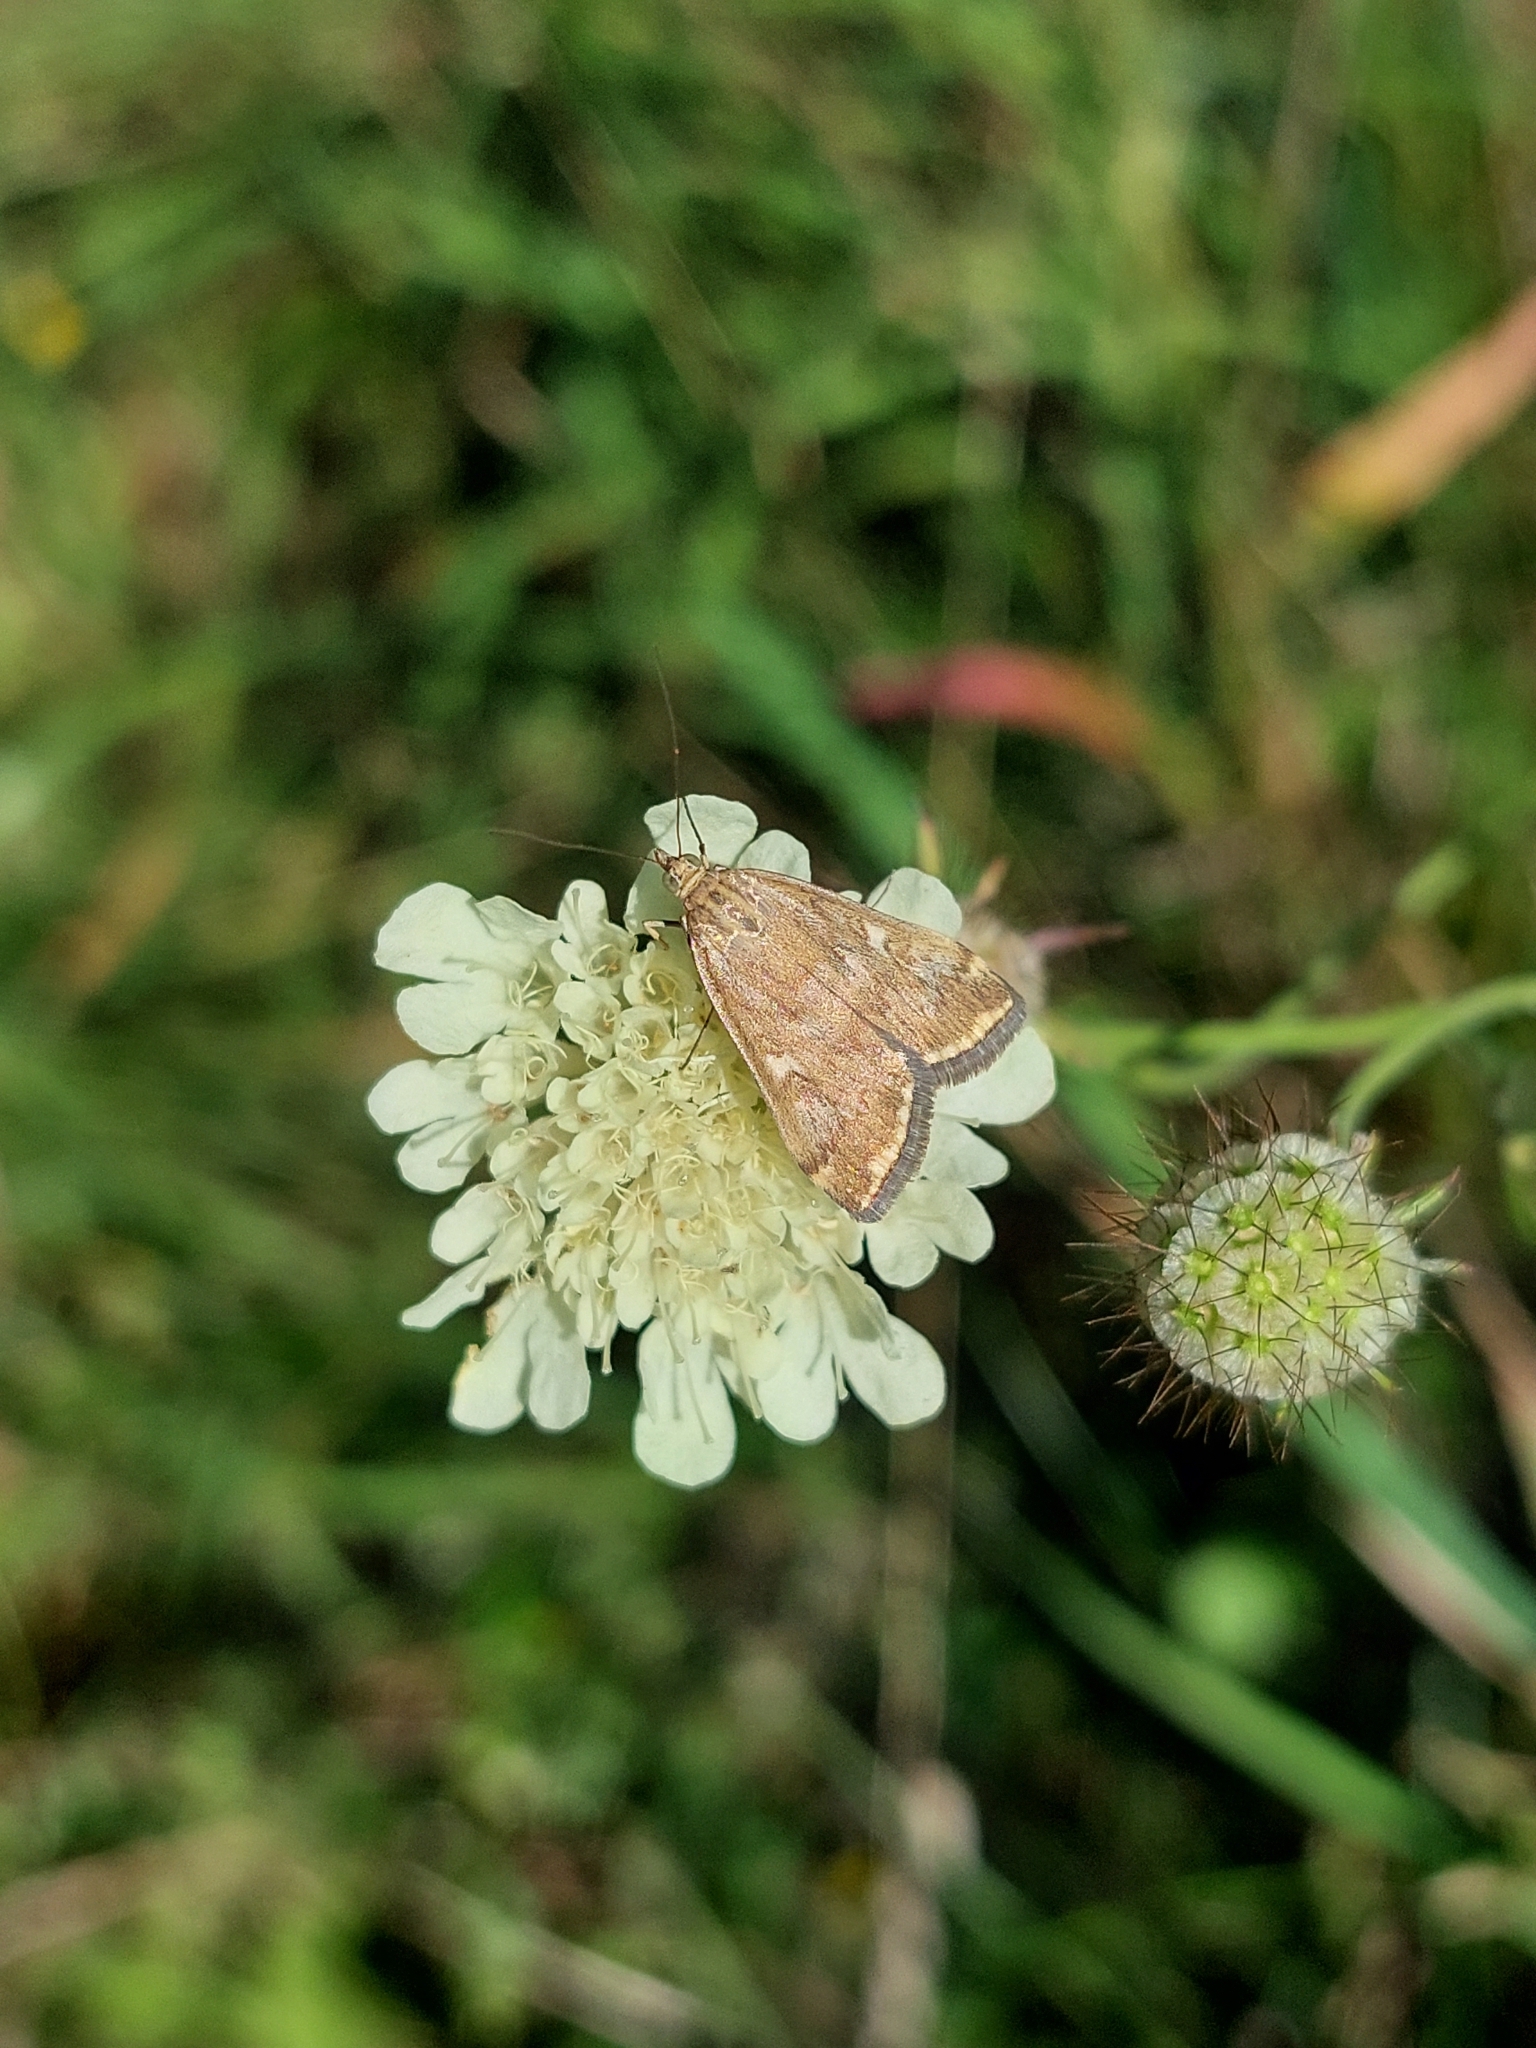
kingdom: Animalia
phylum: Arthropoda
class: Insecta
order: Lepidoptera
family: Crambidae
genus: Loxostege
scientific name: Loxostege sticticalis
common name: Crambid moth
